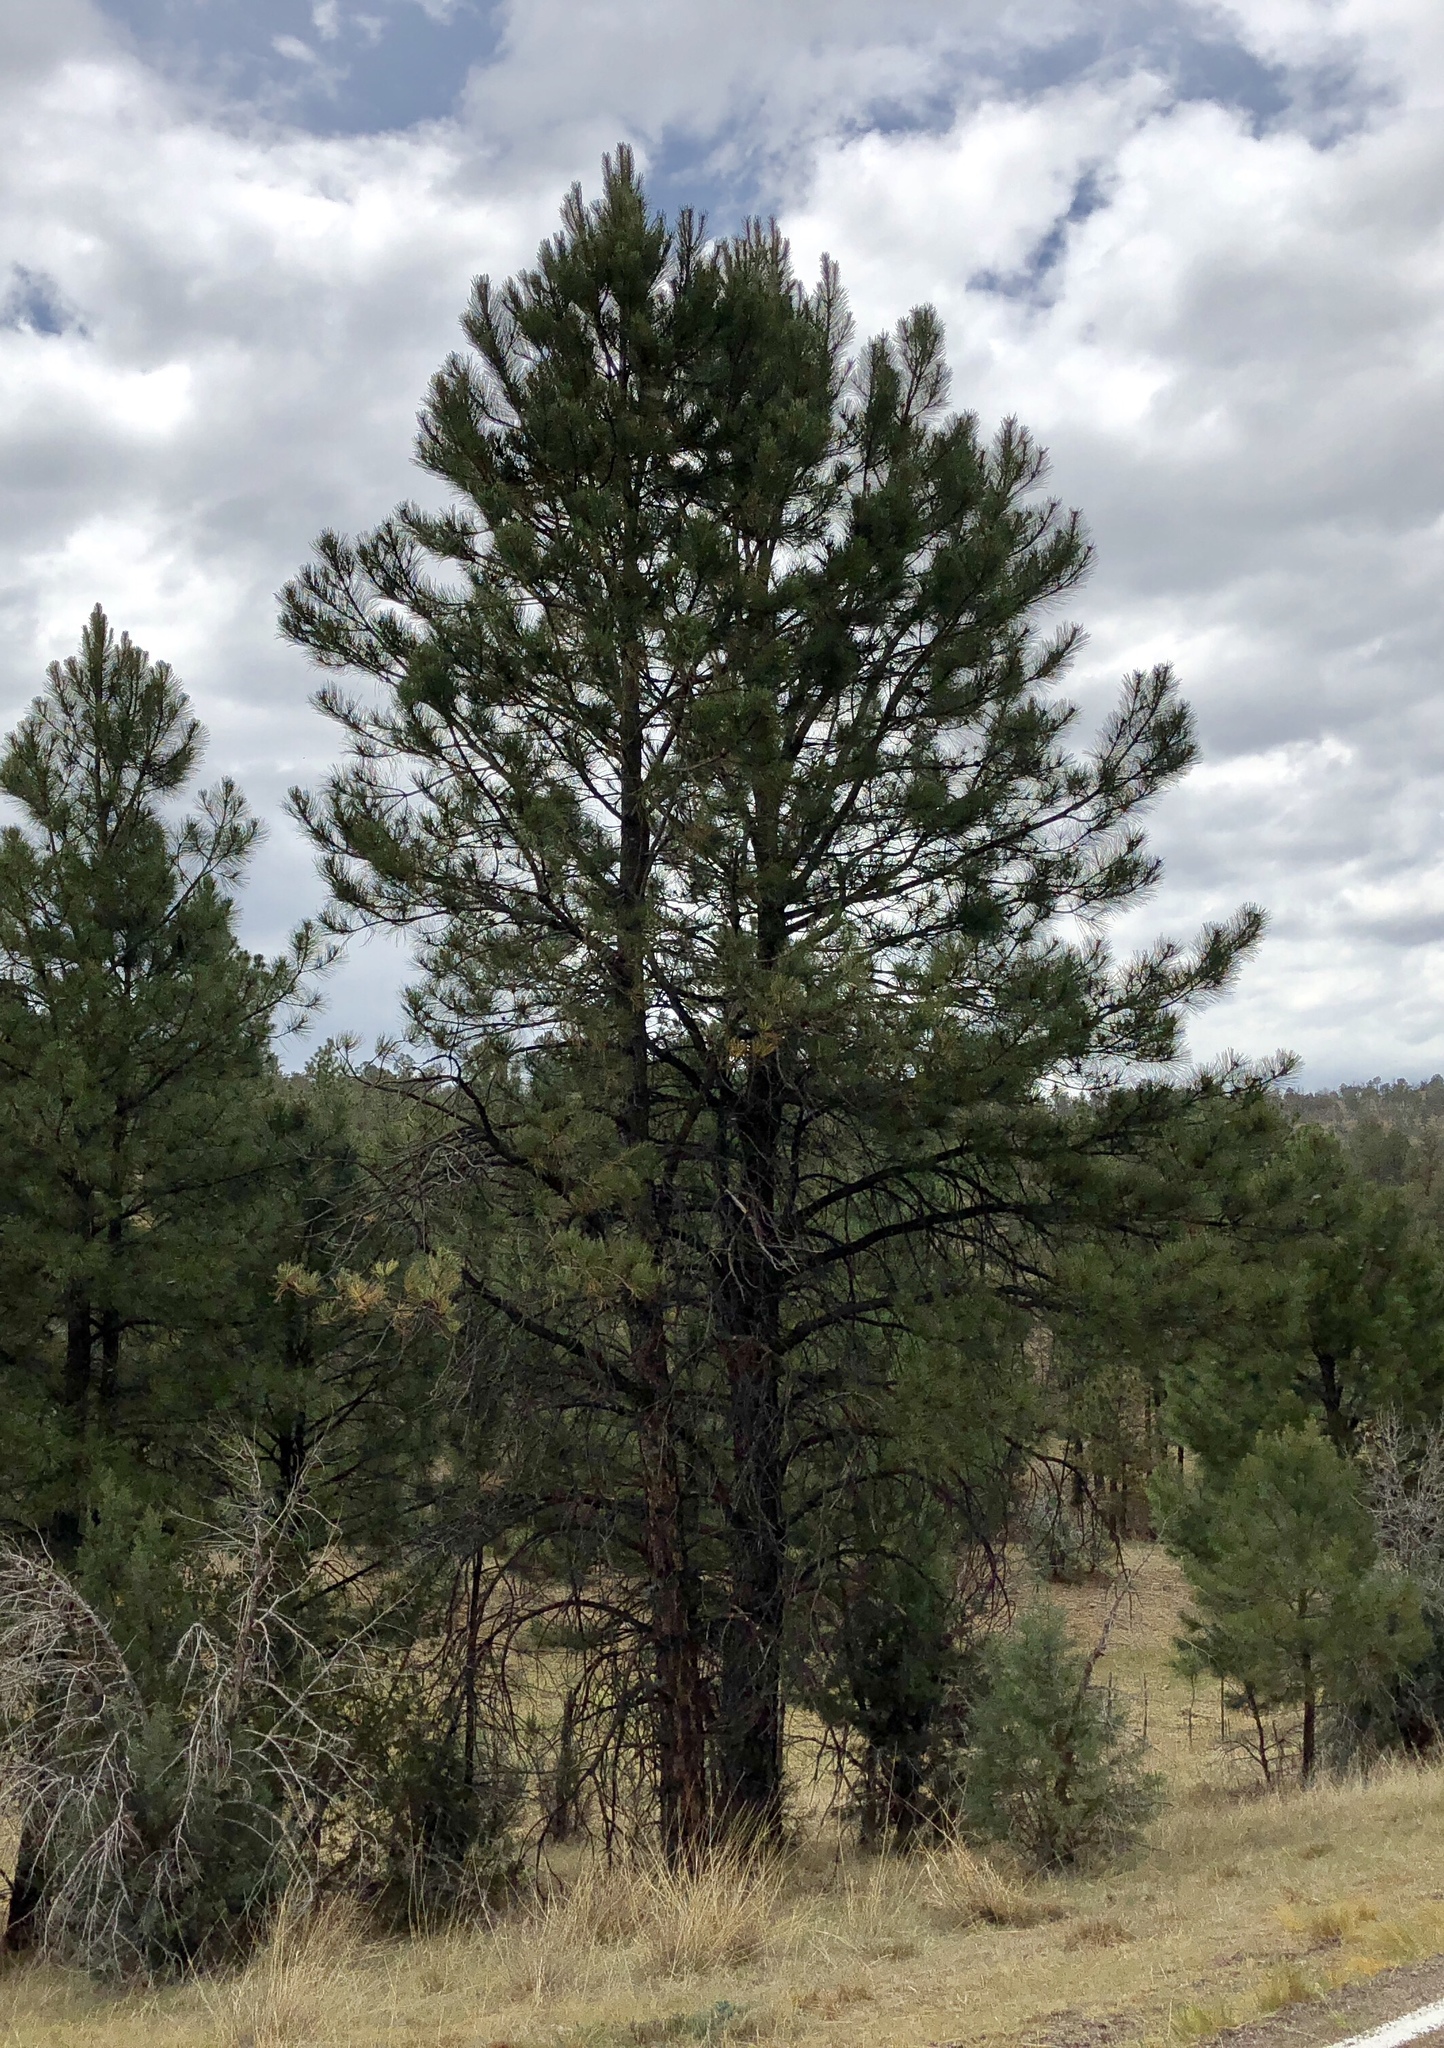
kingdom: Plantae
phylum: Tracheophyta
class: Pinopsida
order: Pinales
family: Pinaceae
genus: Pinus
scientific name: Pinus ponderosa
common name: Western yellow-pine
